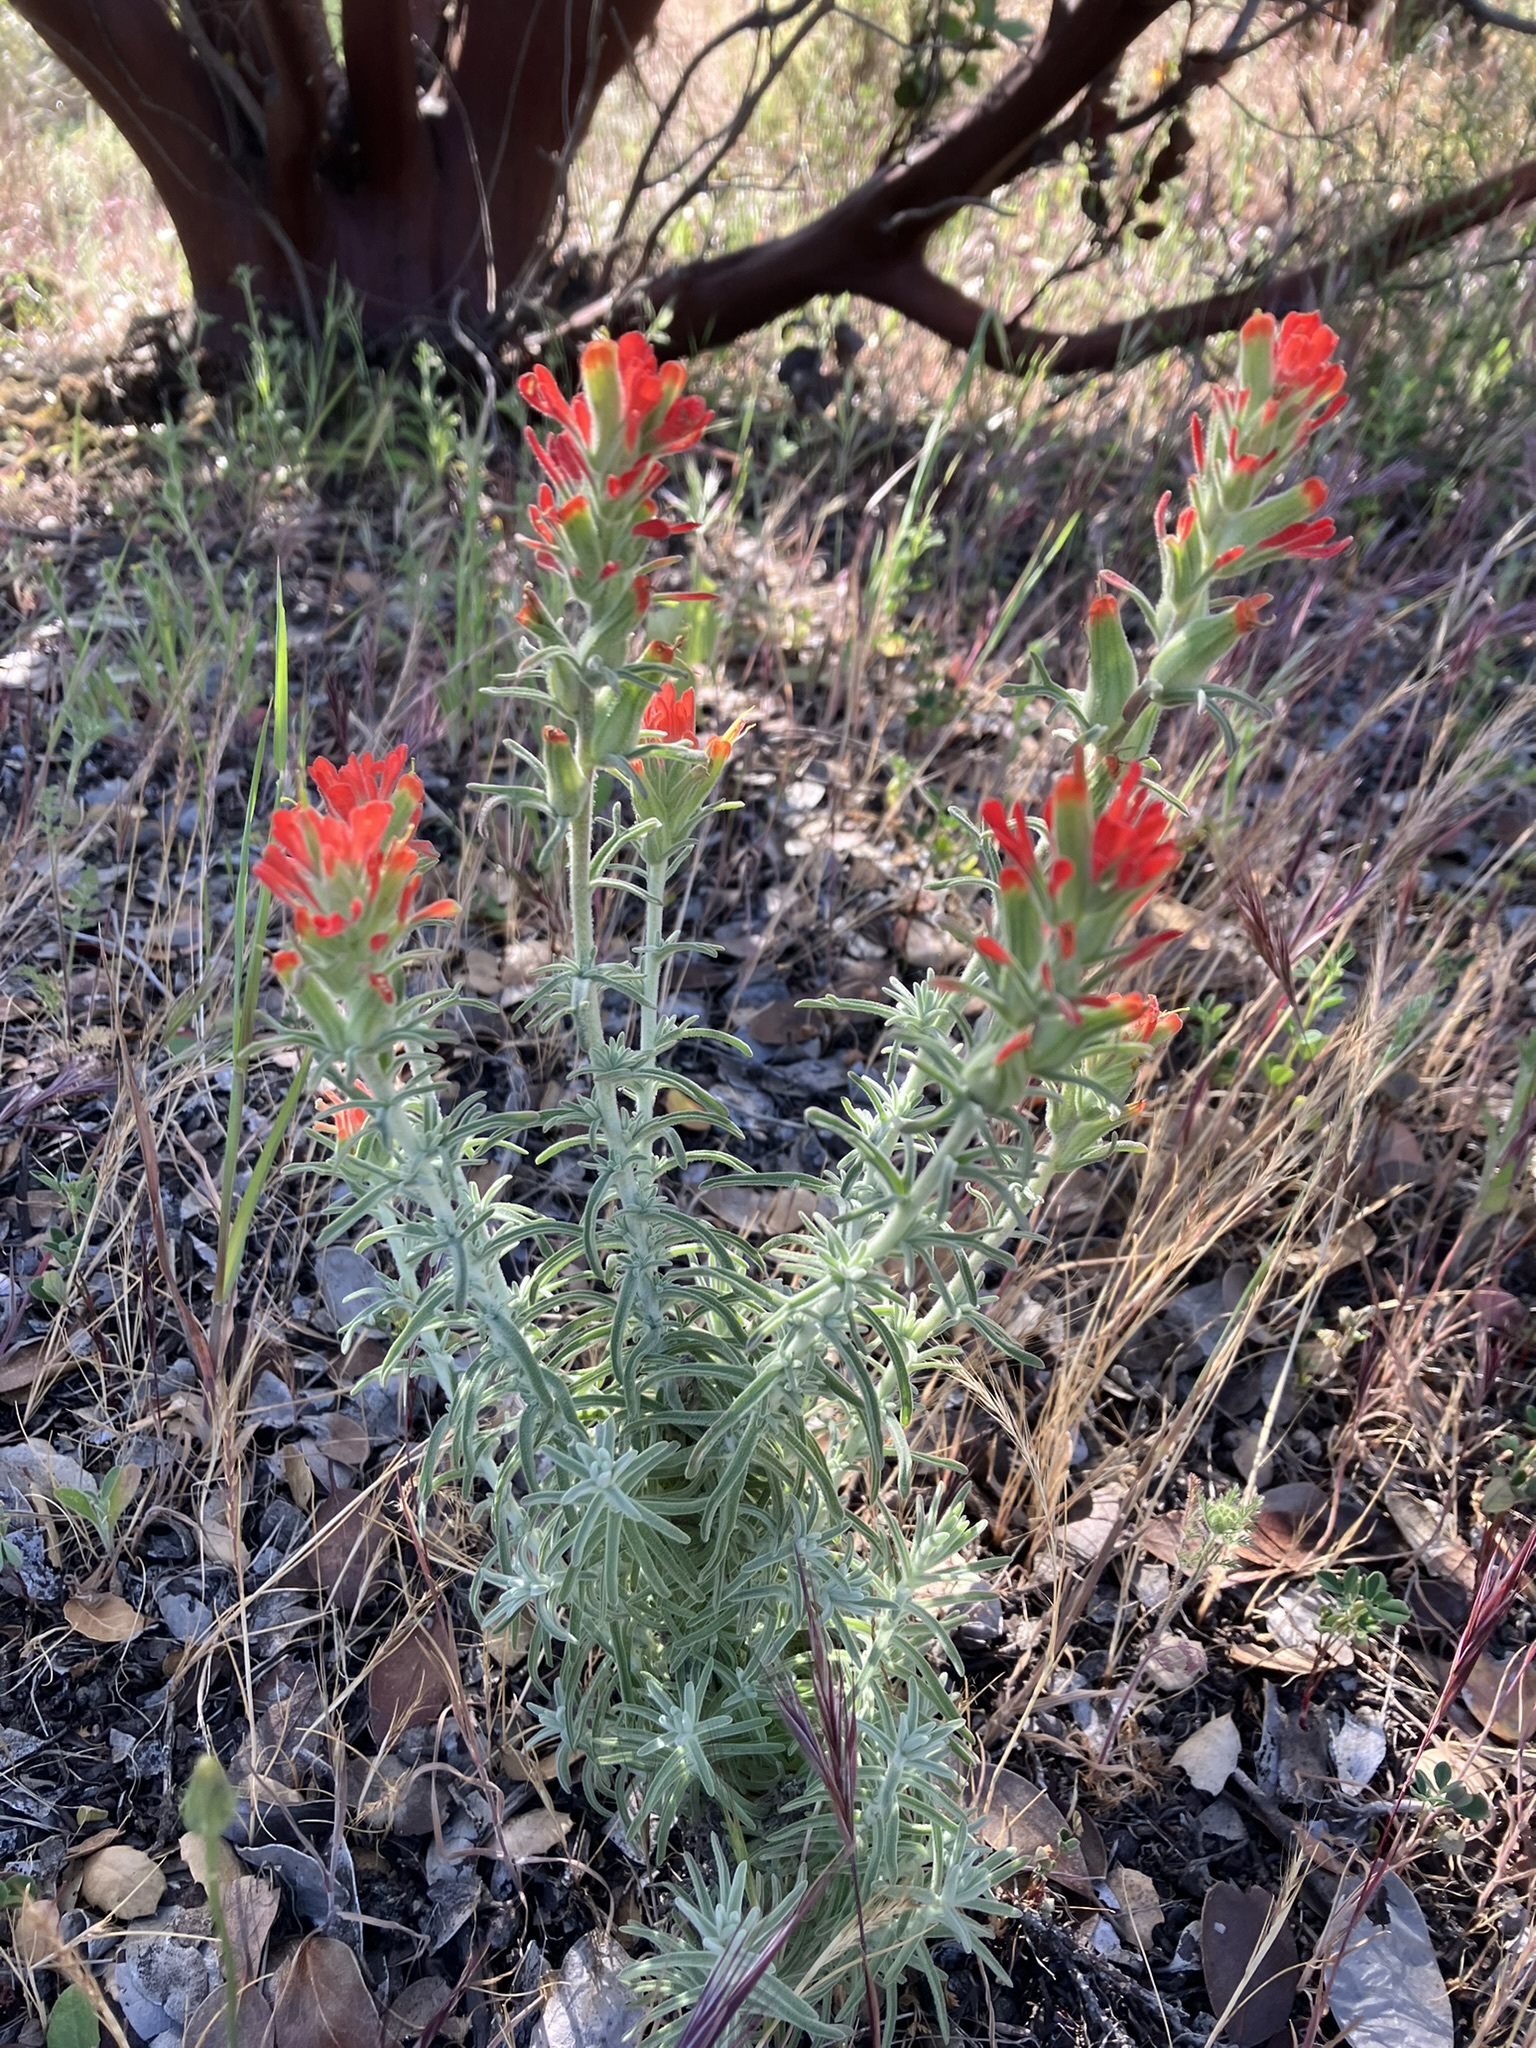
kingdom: Plantae
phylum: Tracheophyta
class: Magnoliopsida
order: Lamiales
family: Orobanchaceae
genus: Castilleja
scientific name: Castilleja foliolosa
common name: Woolly indian paintbrush
